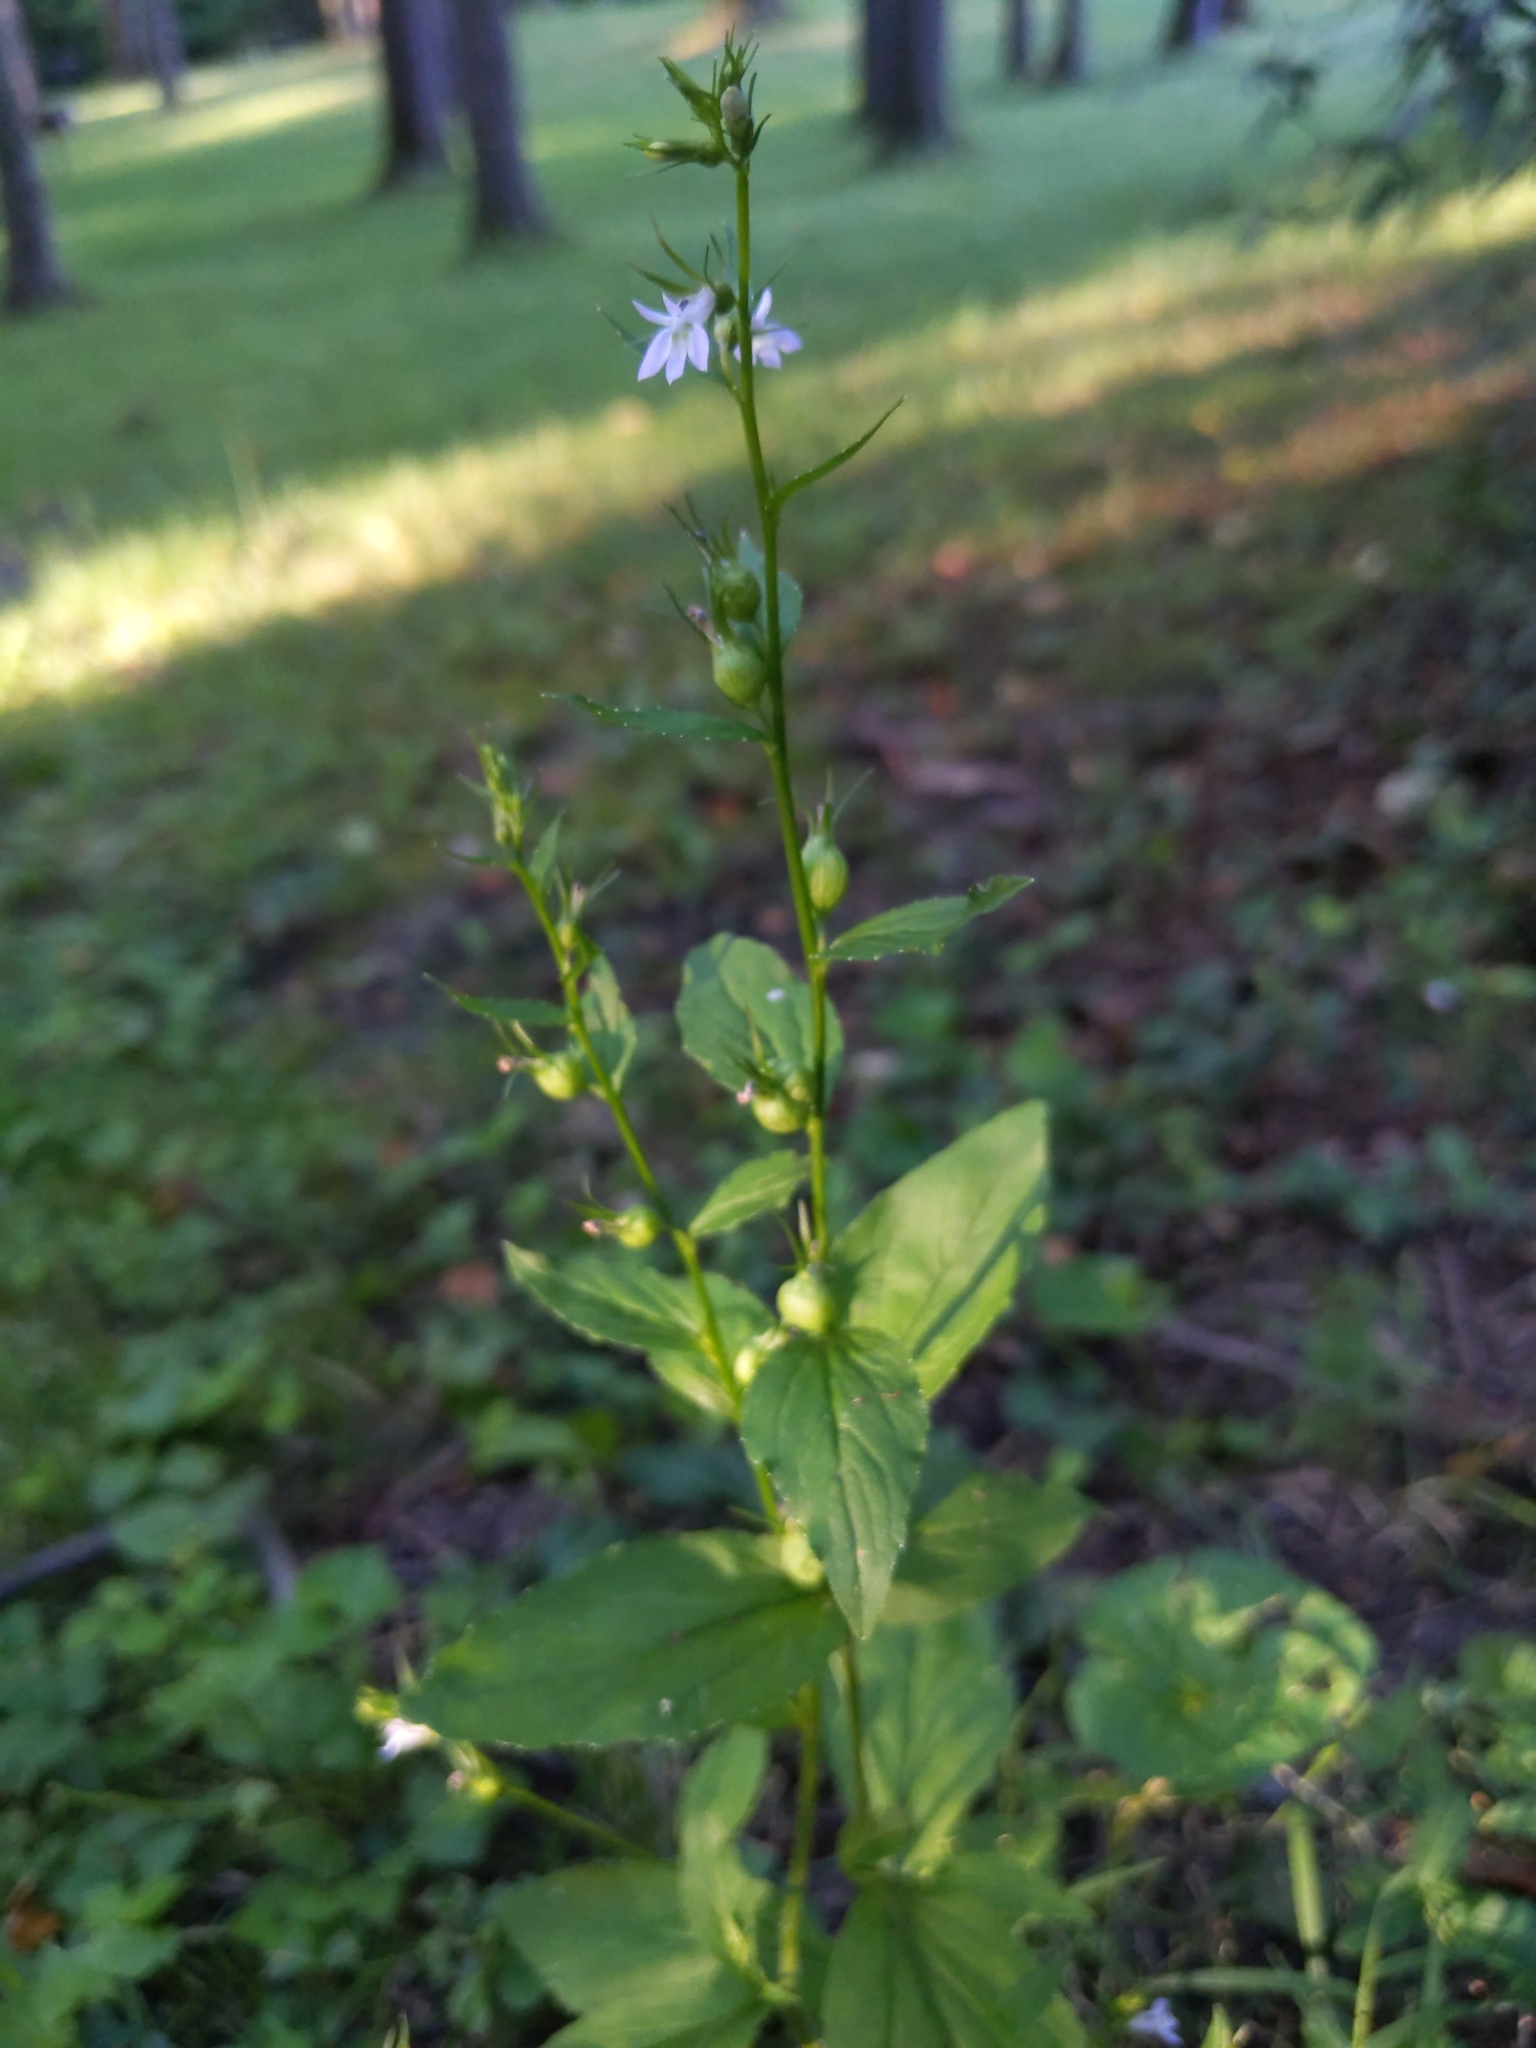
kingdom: Plantae
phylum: Tracheophyta
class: Magnoliopsida
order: Asterales
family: Campanulaceae
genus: Lobelia
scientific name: Lobelia inflata
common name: Indian tobacco
